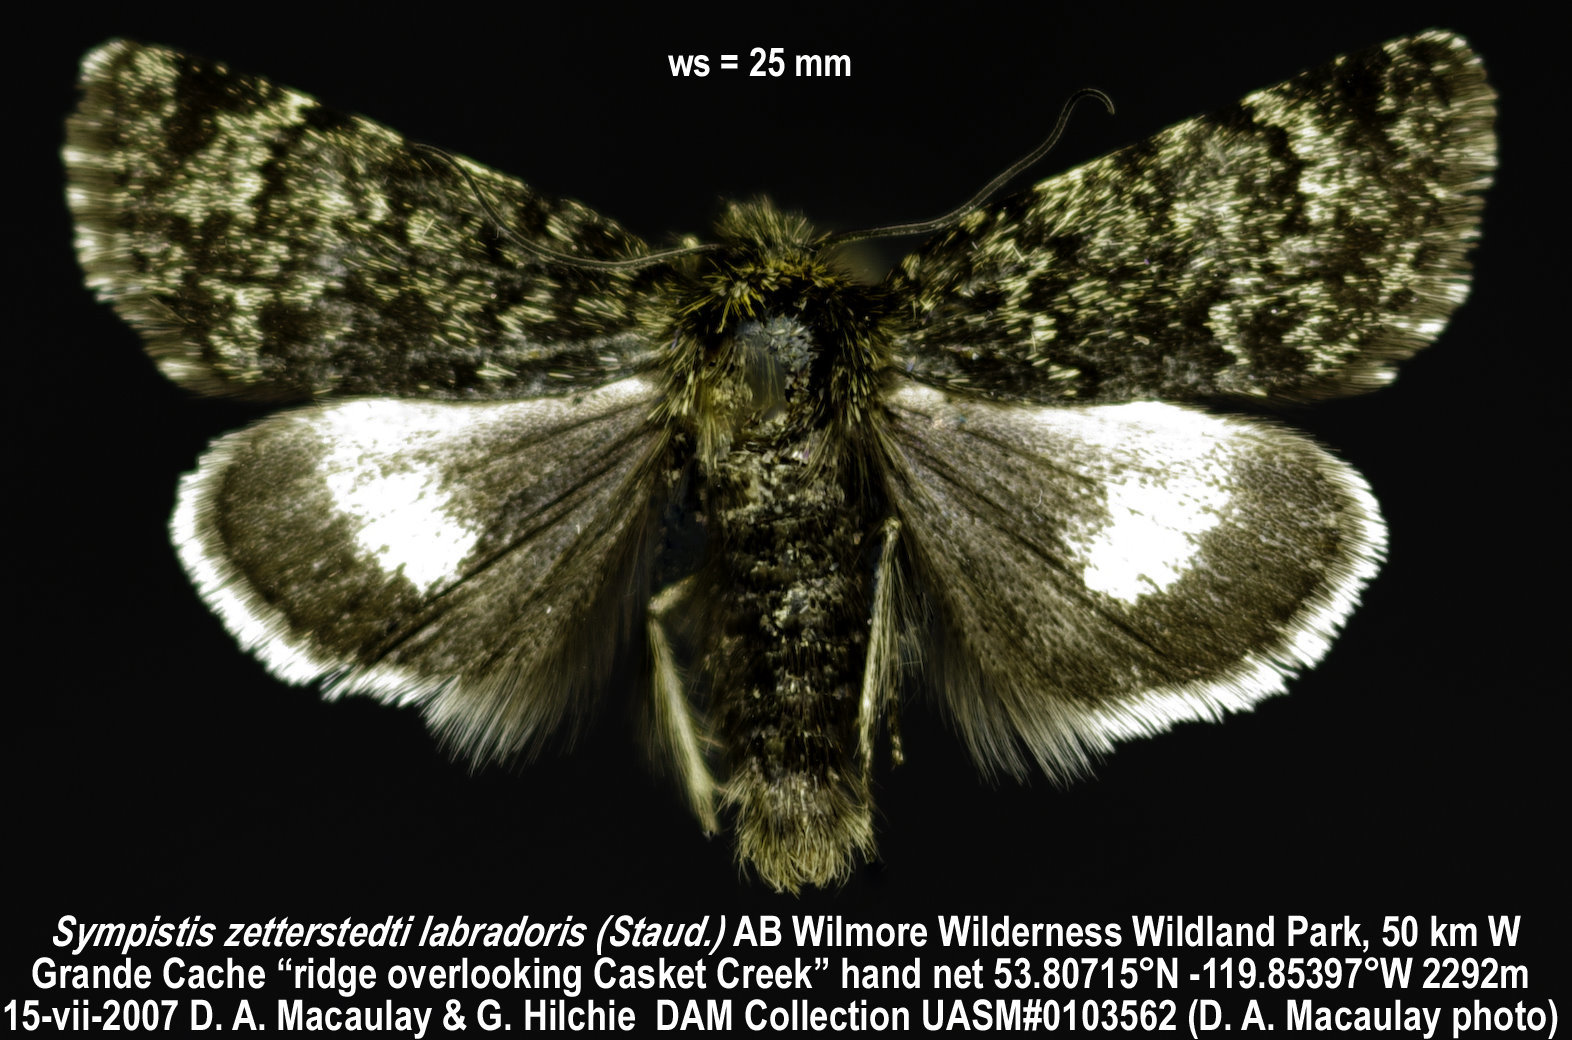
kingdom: Animalia
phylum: Arthropoda
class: Insecta
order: Lepidoptera
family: Noctuidae
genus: Sympistis
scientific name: Sympistis nigrita
